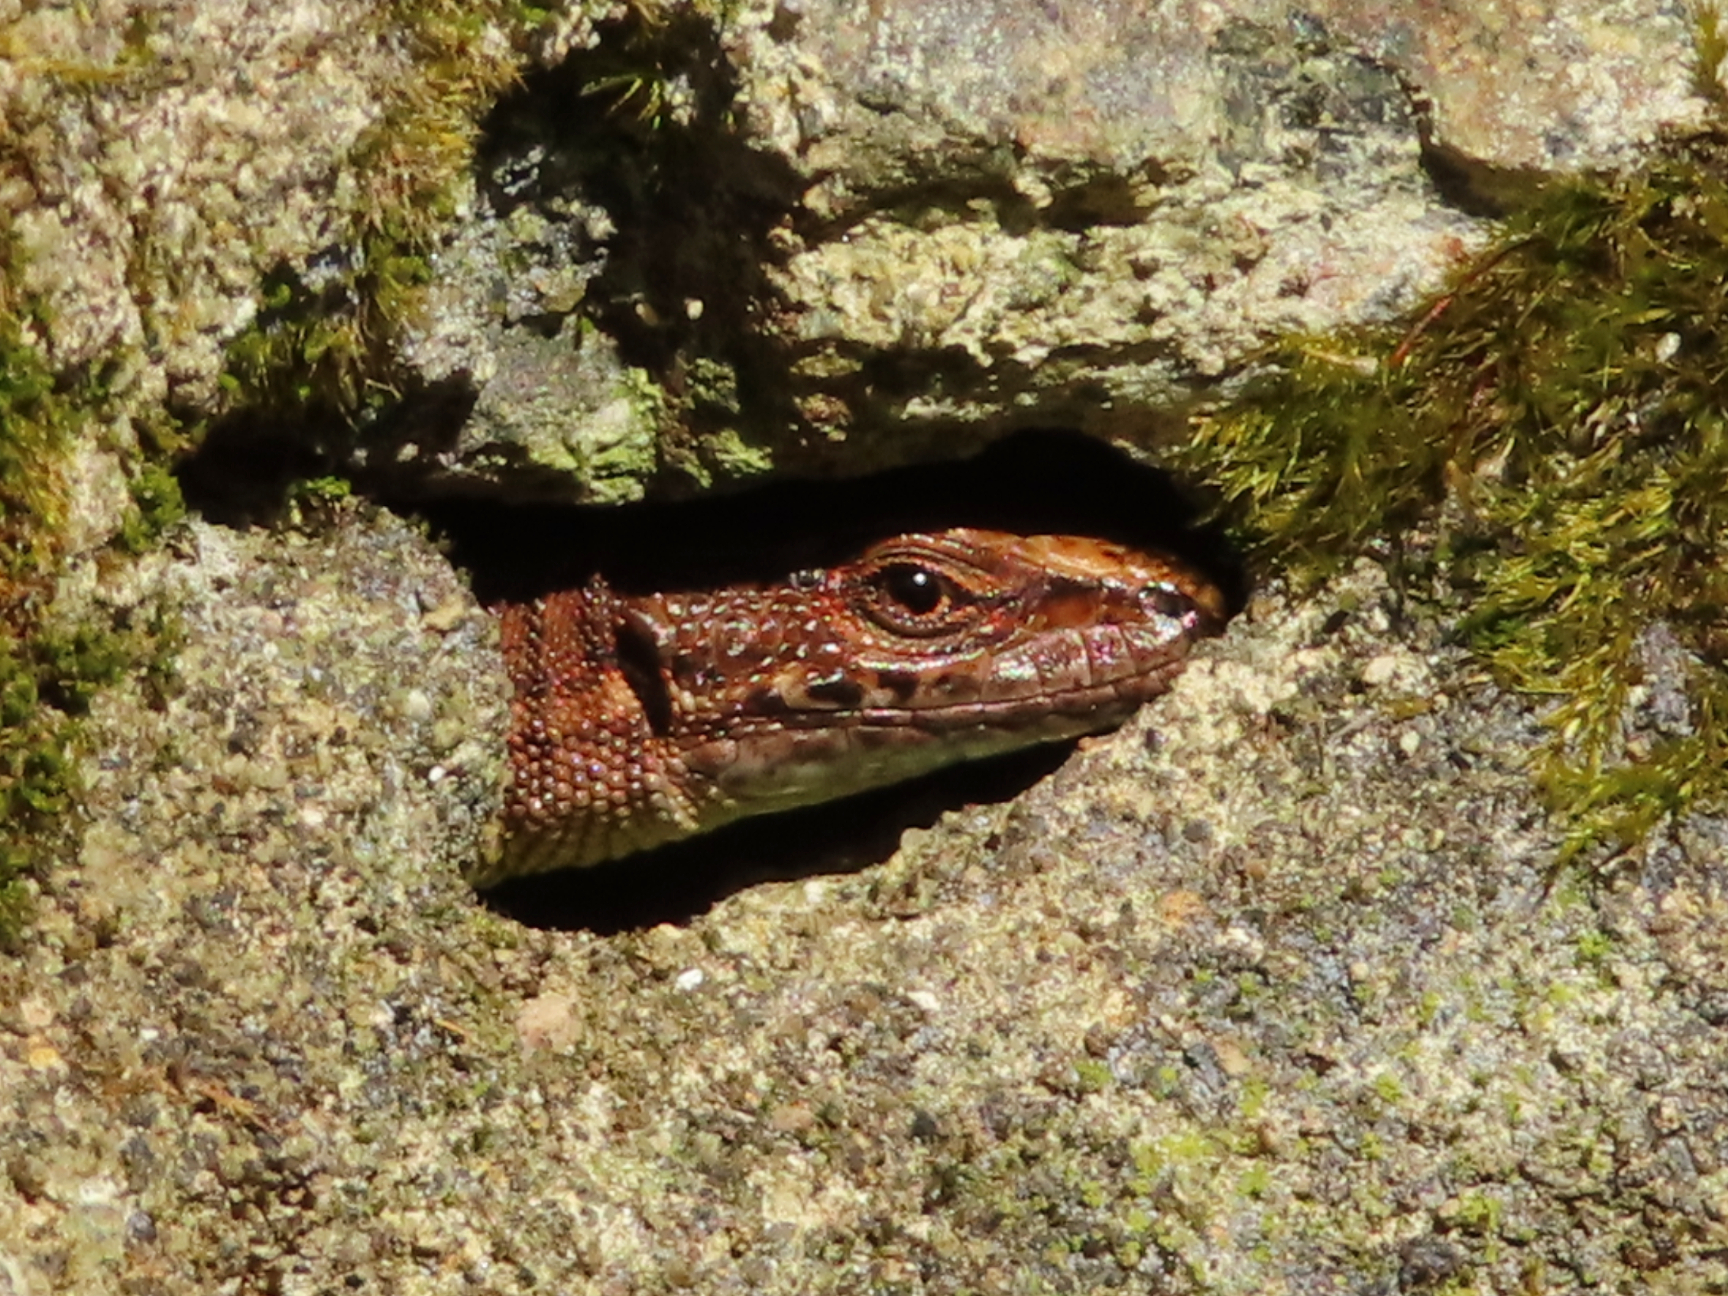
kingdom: Animalia
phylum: Chordata
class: Squamata
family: Lacertidae
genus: Darevskia
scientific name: Darevskia derjugini
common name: Derjugin's lizard
